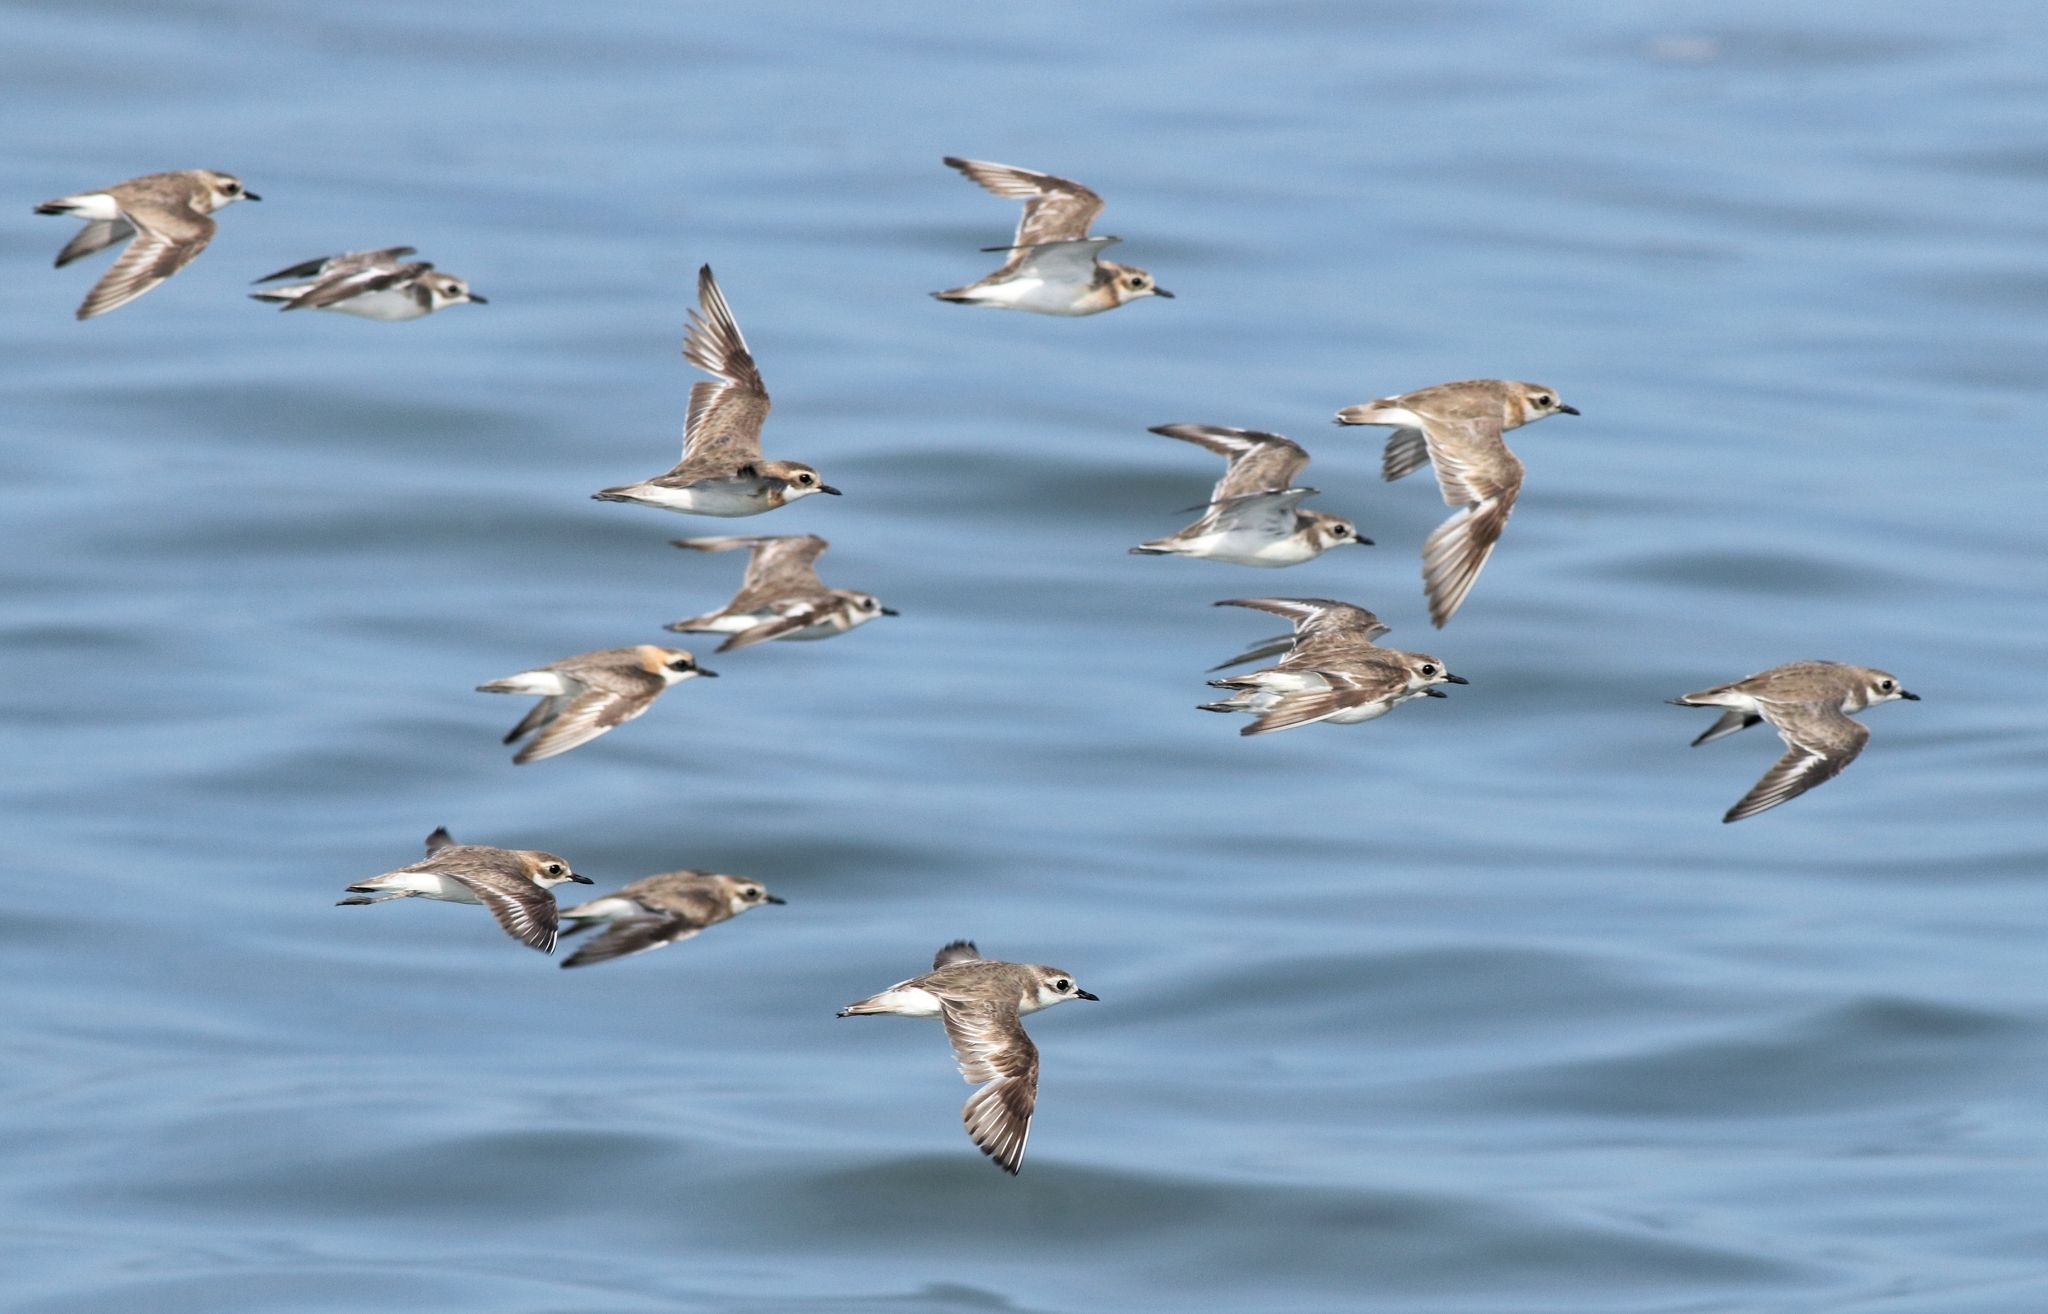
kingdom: Animalia
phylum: Chordata
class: Aves
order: Charadriiformes
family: Charadriidae
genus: Anarhynchus
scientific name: Anarhynchus
